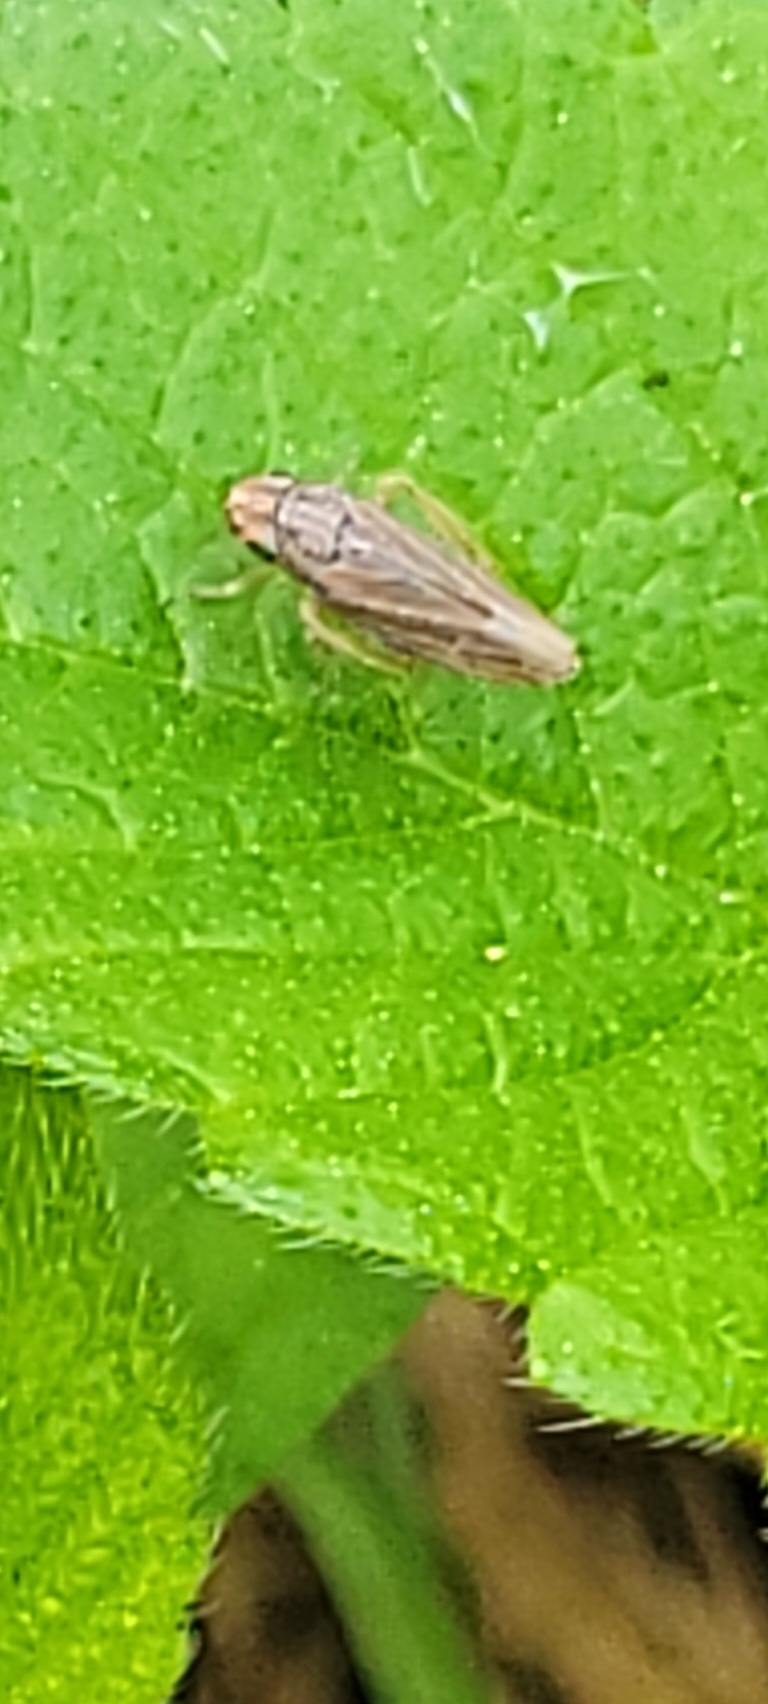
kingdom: Animalia
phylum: Arthropoda
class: Insecta
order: Hemiptera
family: Cicadellidae
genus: Neokolla
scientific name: Neokolla hieroglyphica
